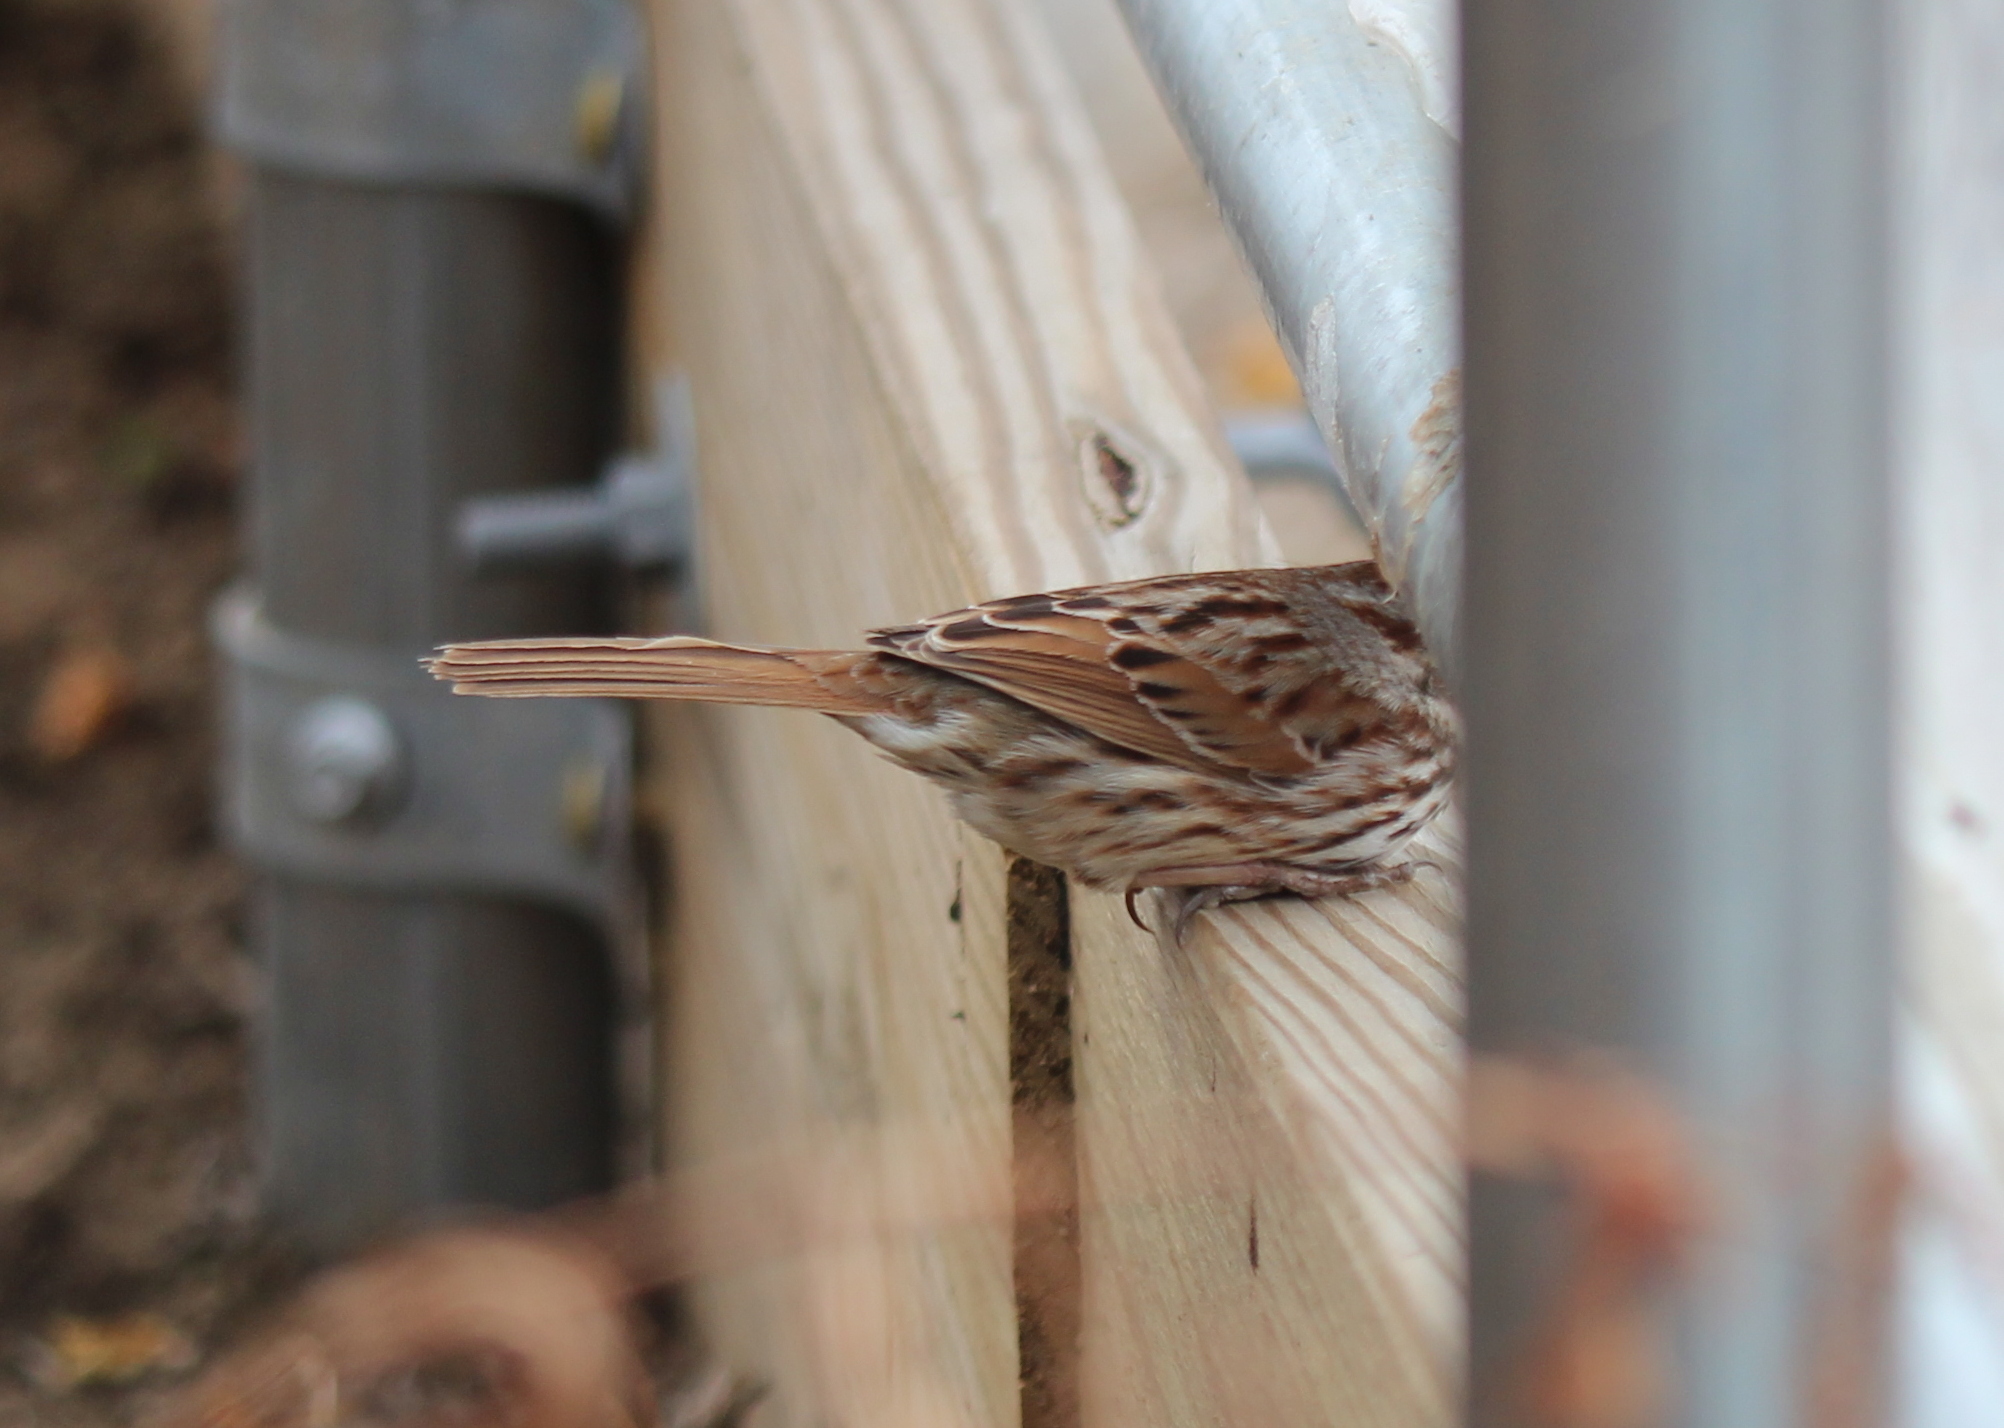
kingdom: Animalia
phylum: Chordata
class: Aves
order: Passeriformes
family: Passerellidae
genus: Melospiza
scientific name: Melospiza melodia
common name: Song sparrow
